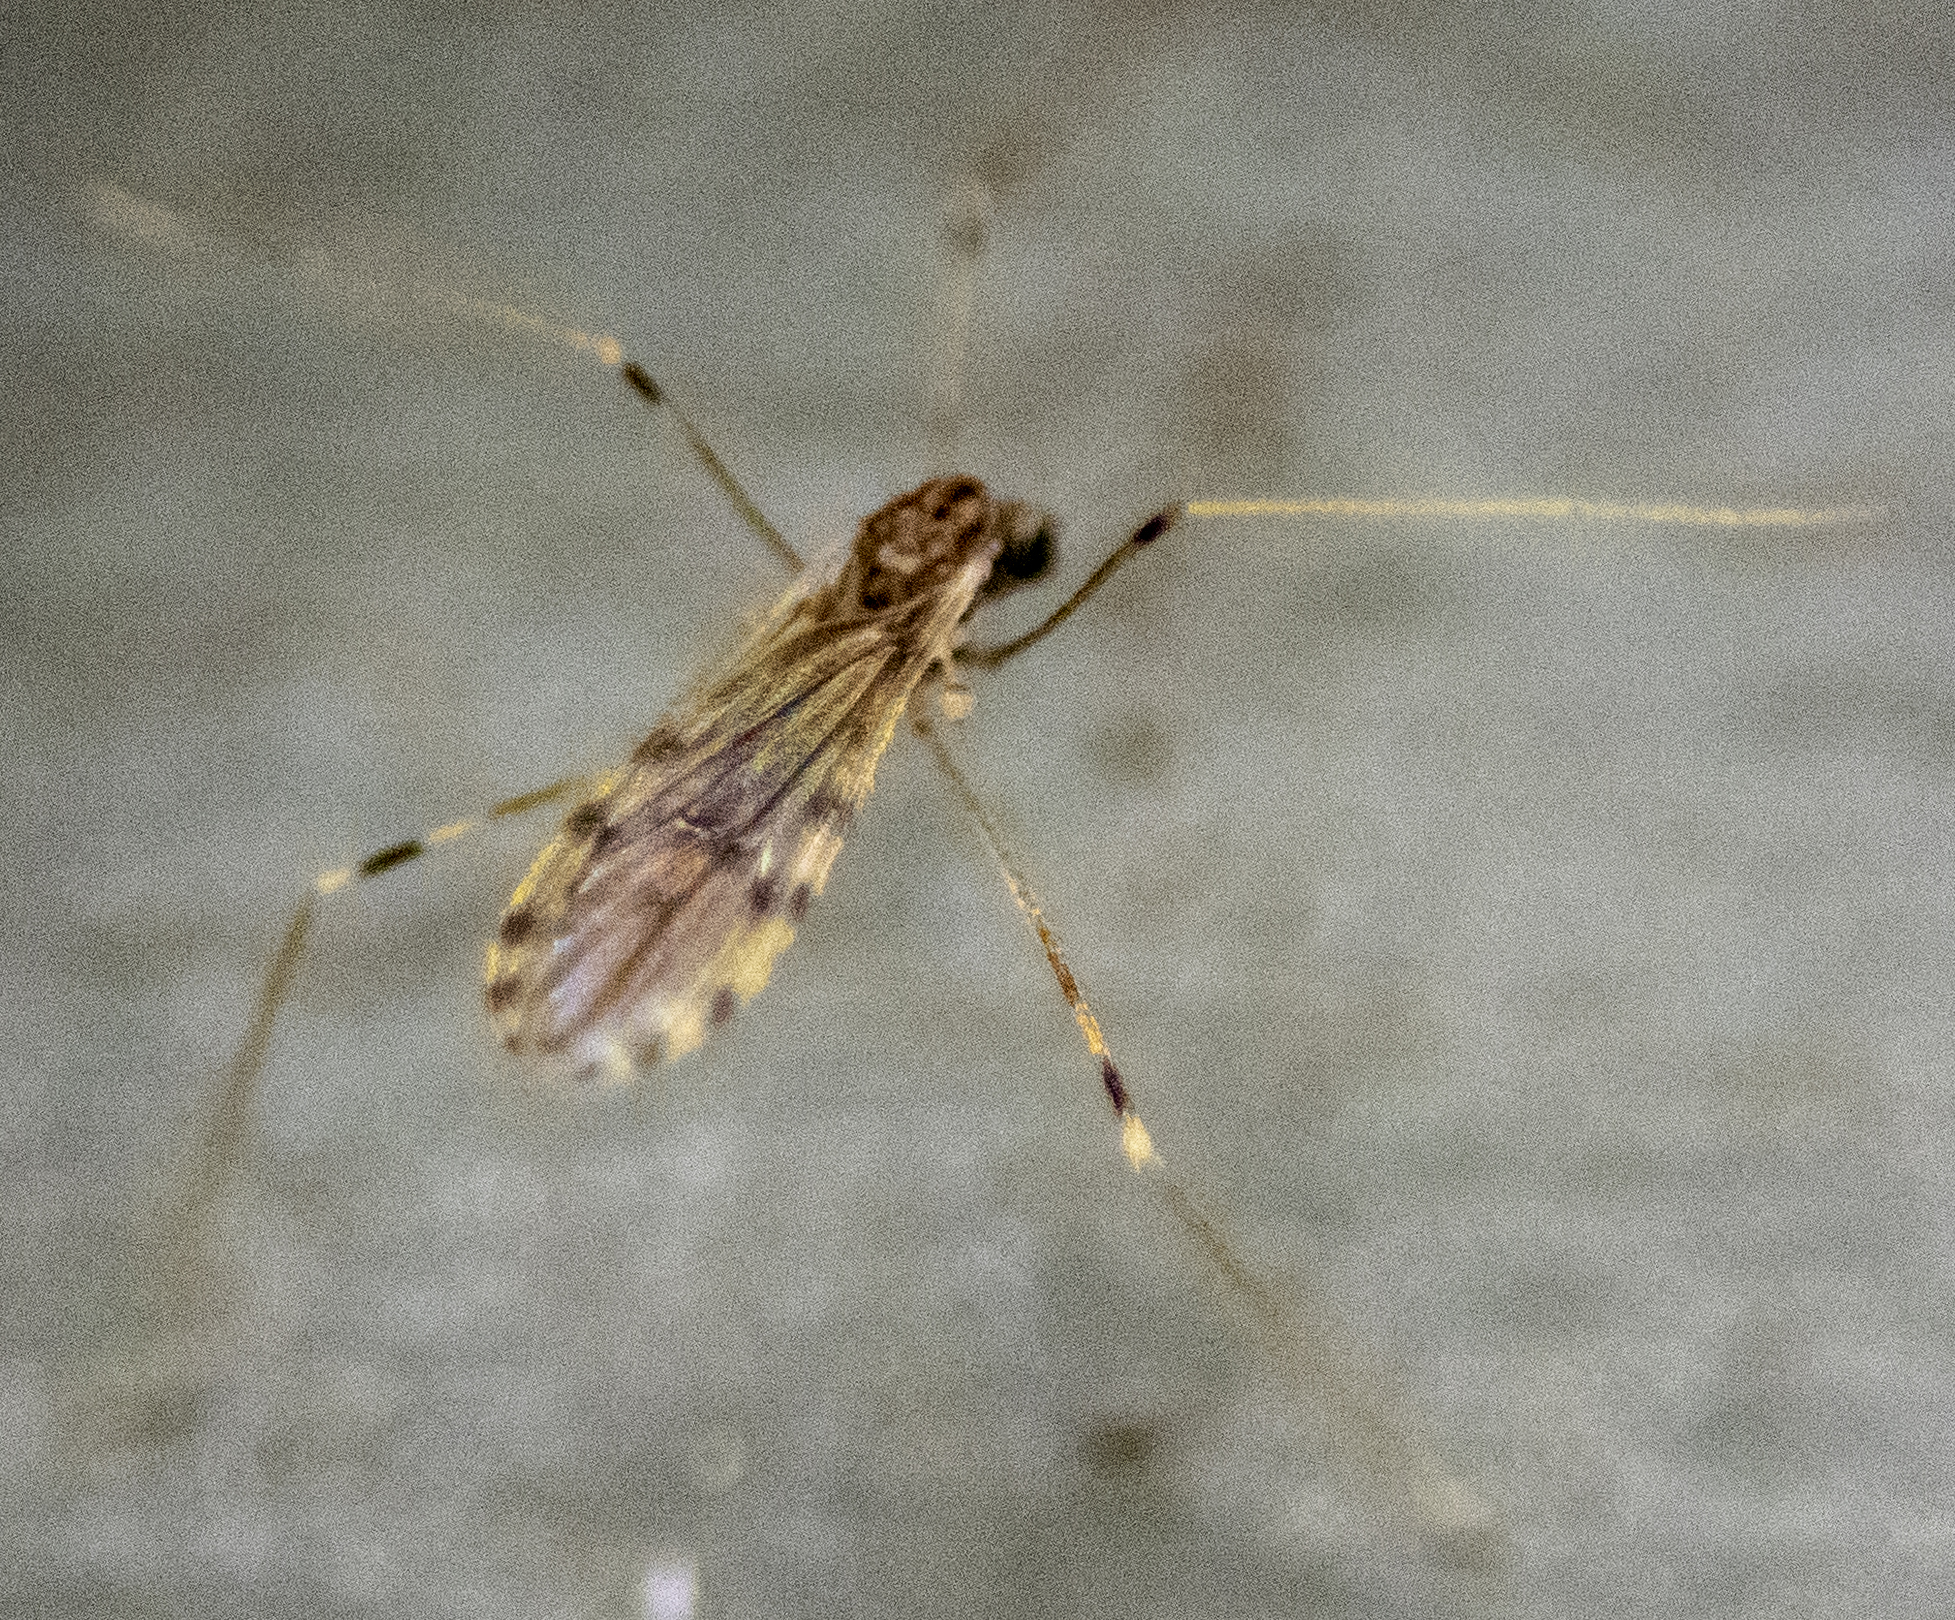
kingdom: Animalia
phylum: Arthropoda
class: Insecta
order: Diptera
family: Limoniidae
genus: Erioptera
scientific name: Erioptera parva
